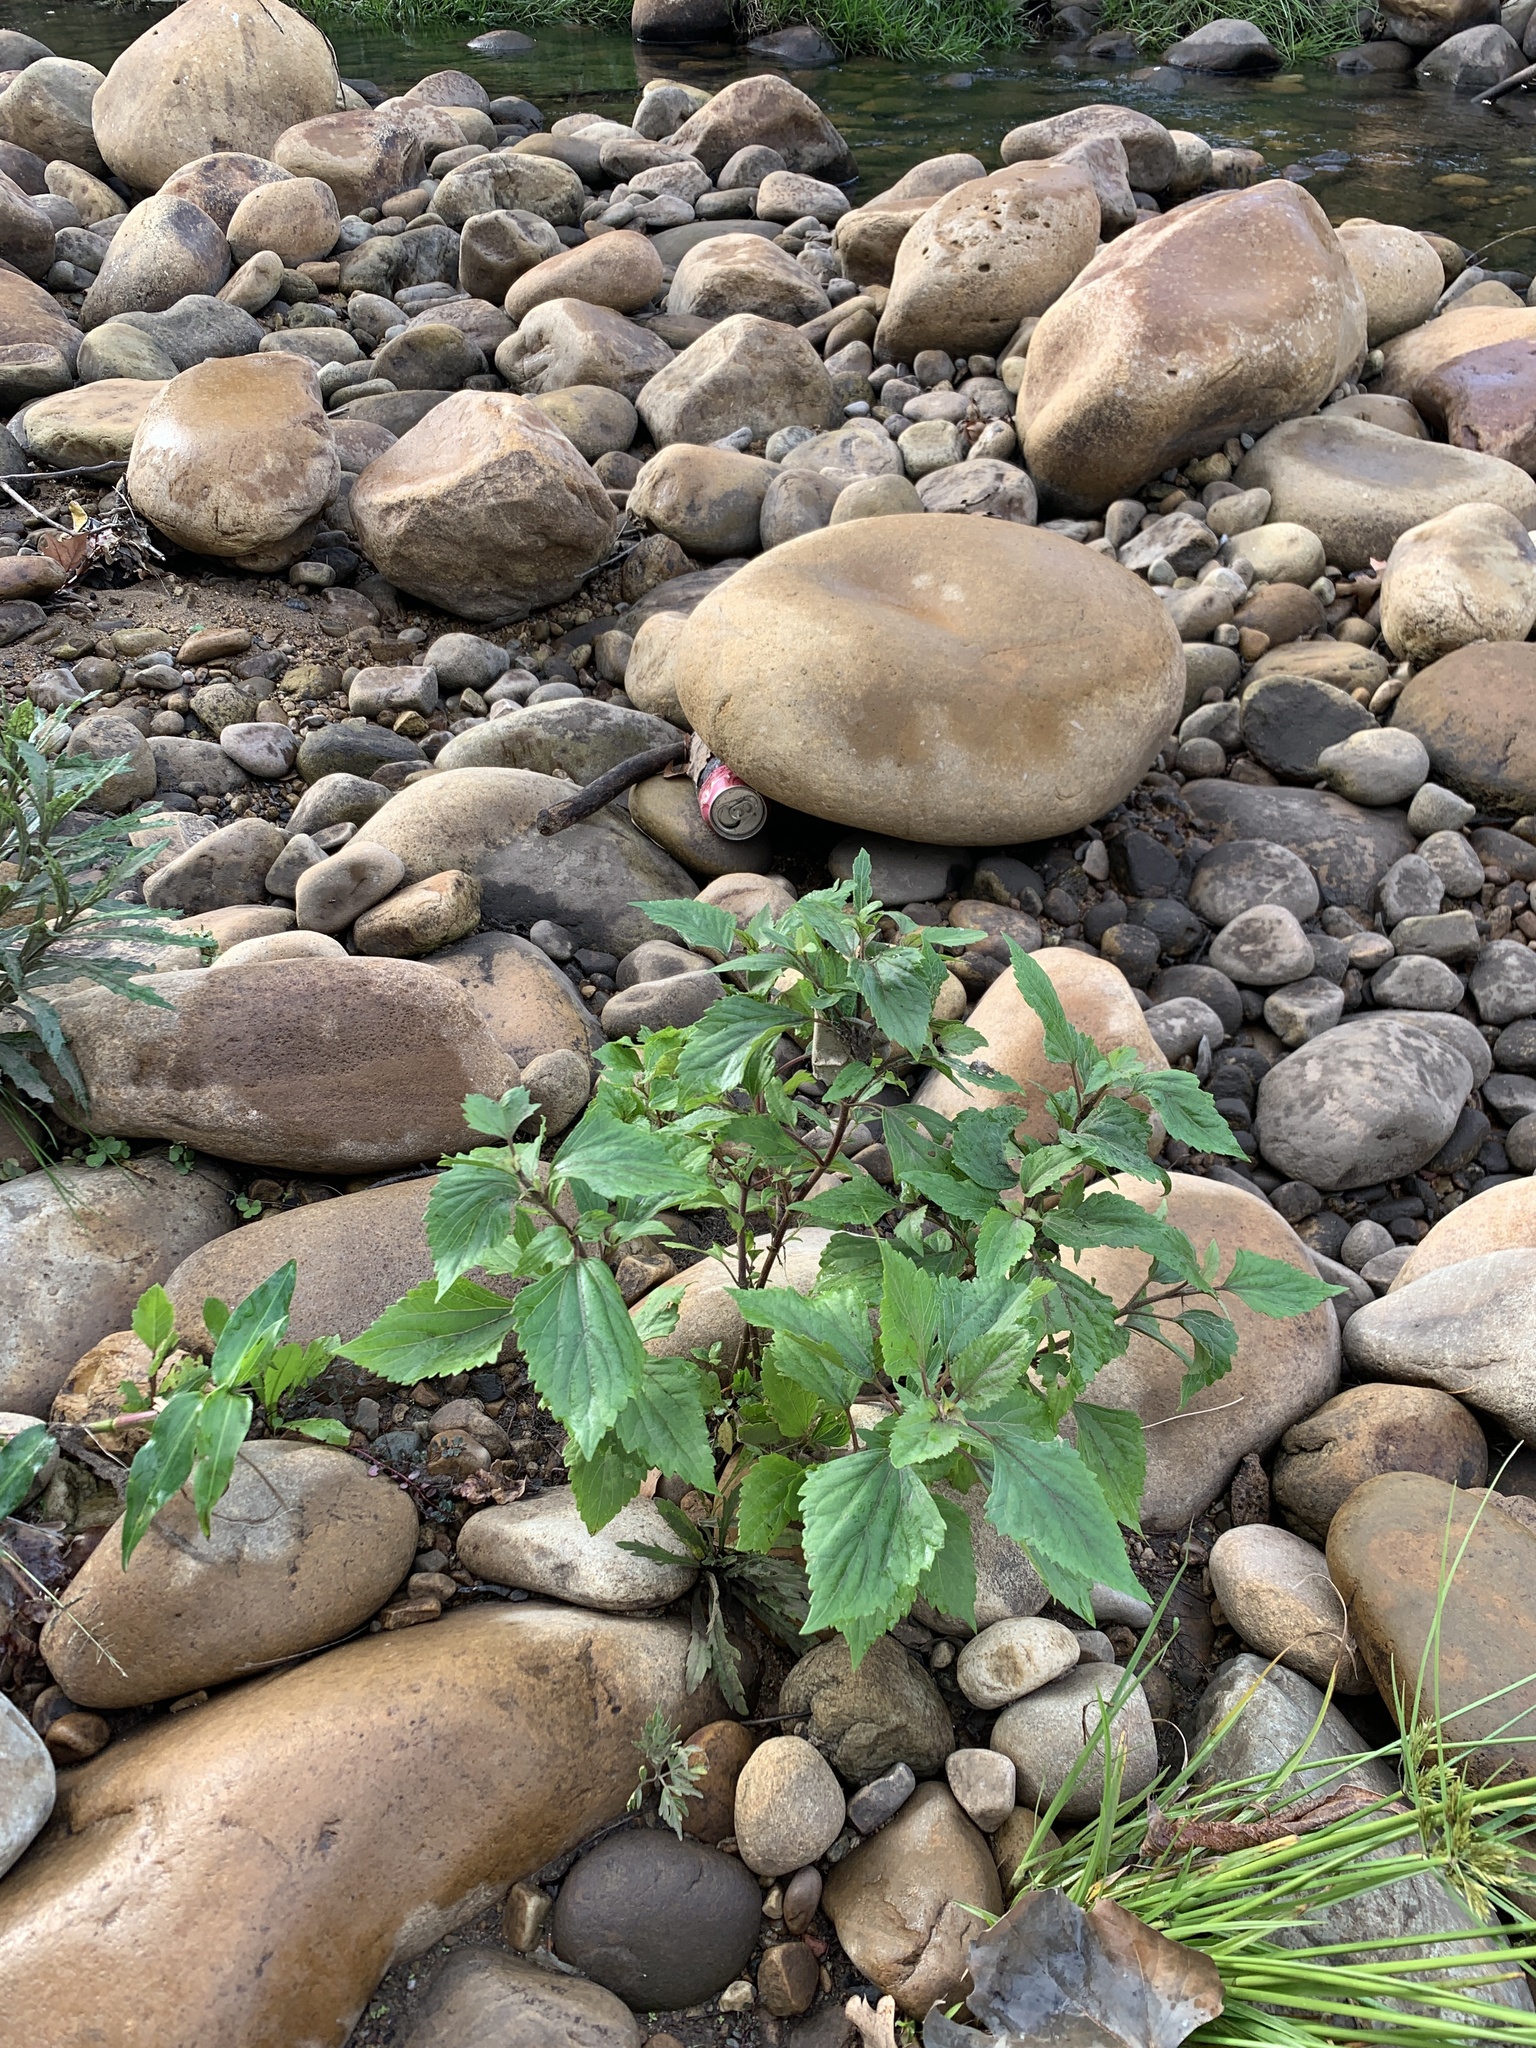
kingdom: Plantae
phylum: Tracheophyta
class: Magnoliopsida
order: Asterales
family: Asteraceae
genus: Ageratina
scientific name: Ageratina adenophora
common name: Sticky snakeroot
